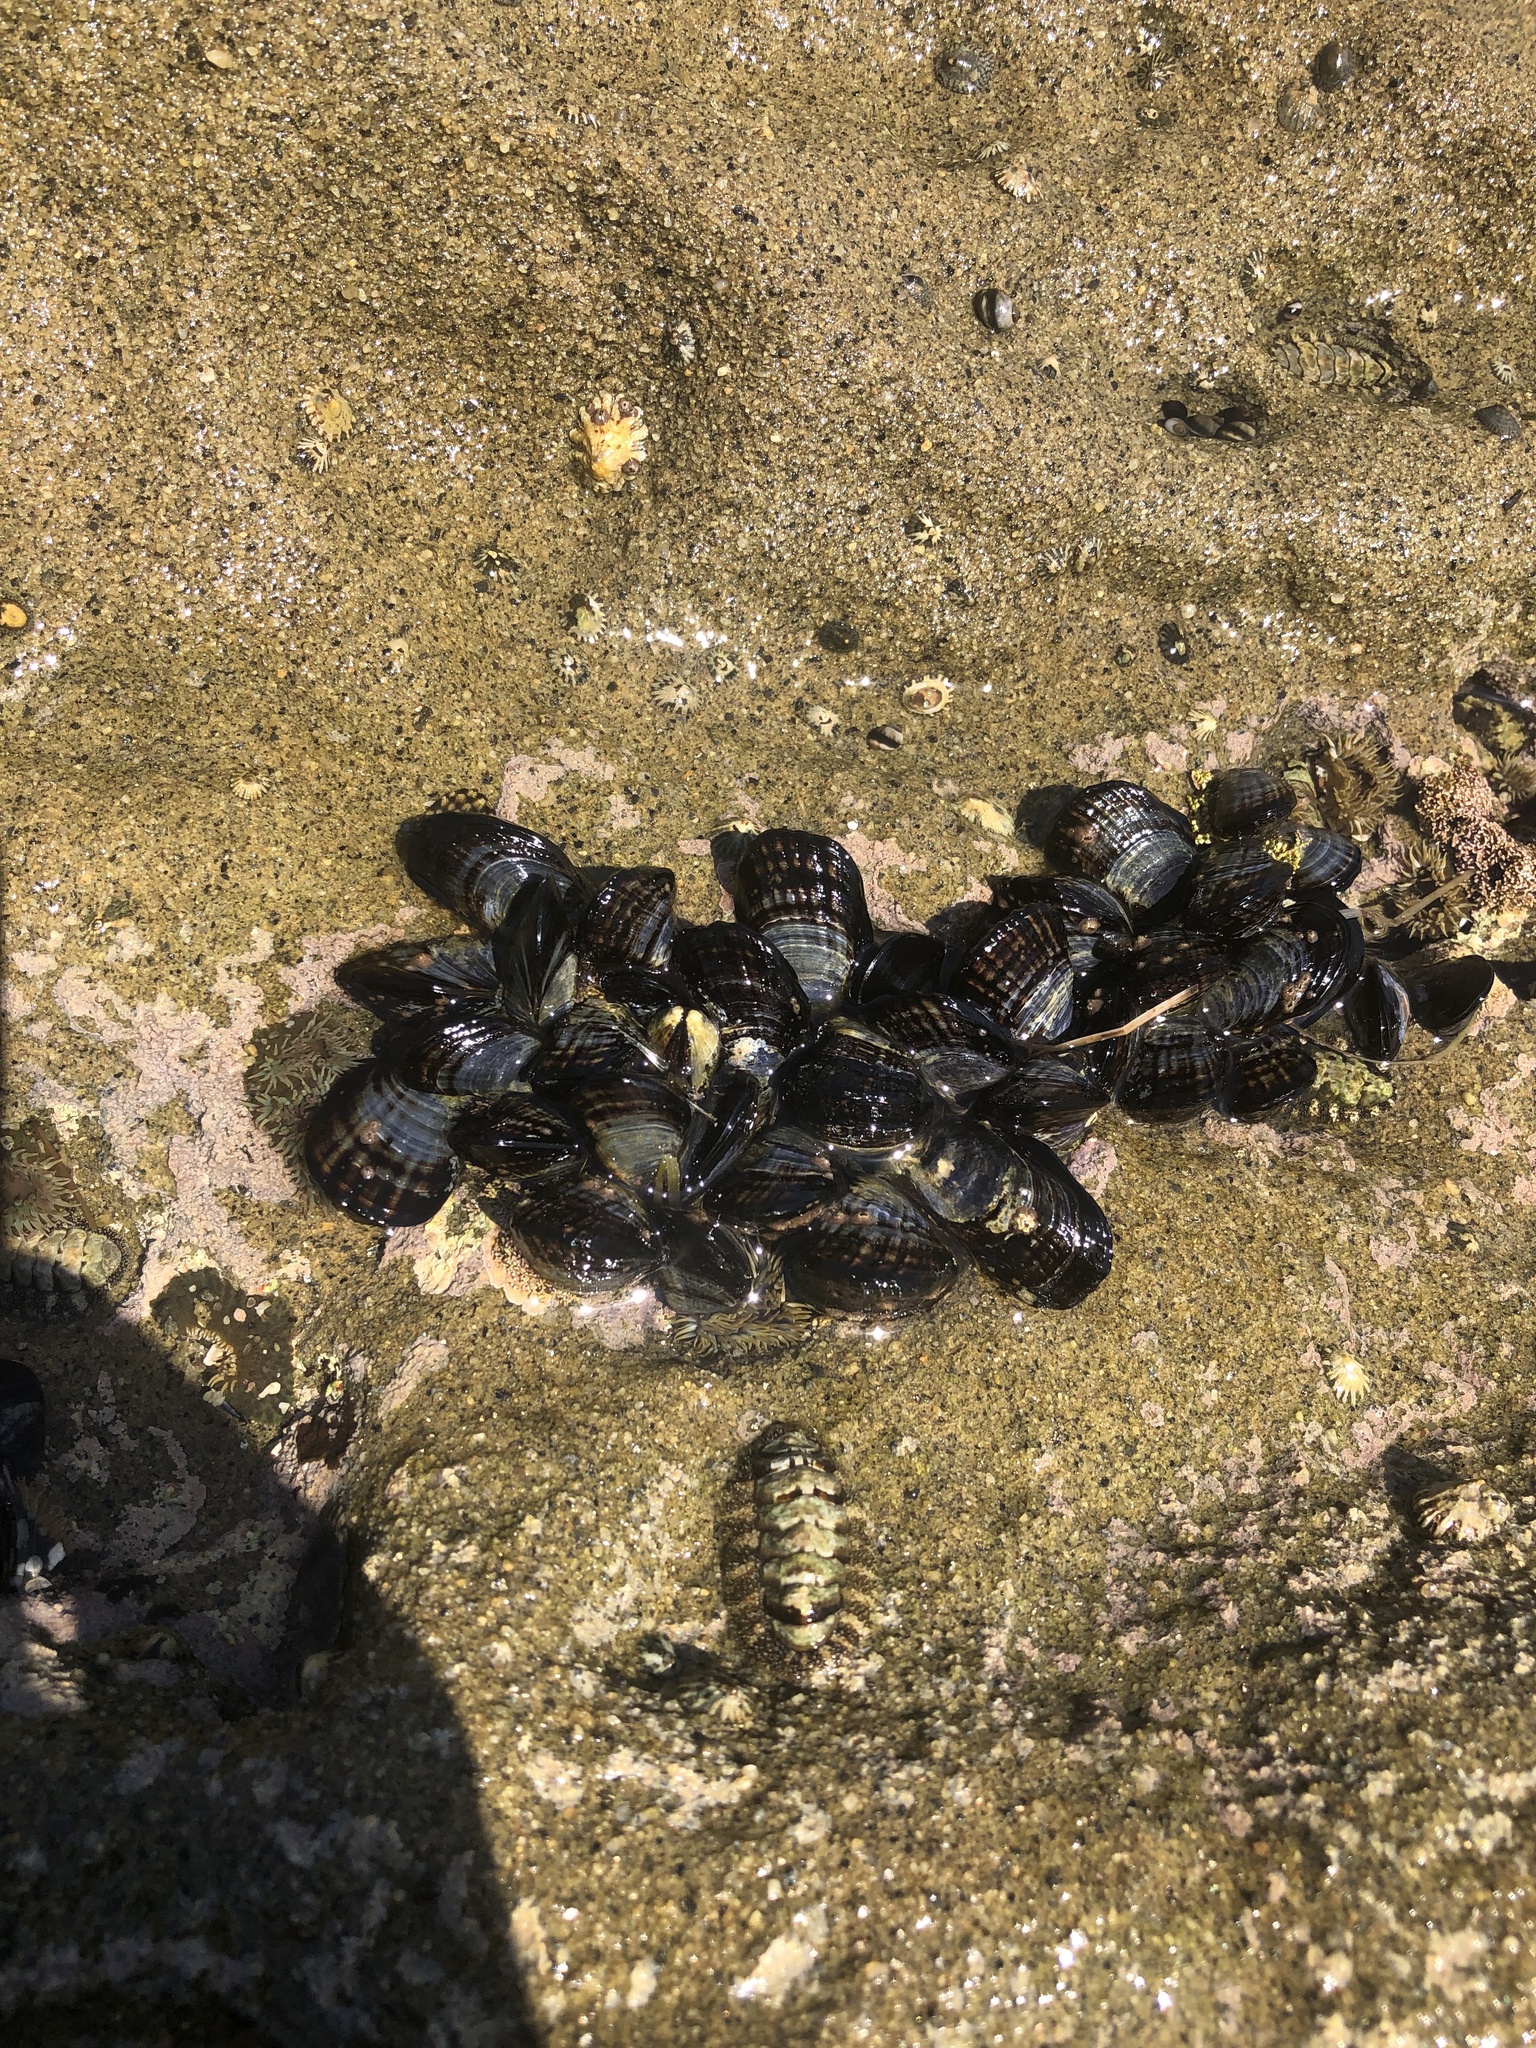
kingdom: Animalia
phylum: Mollusca
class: Bivalvia
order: Mytilida
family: Mytilidae
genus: Mytilus
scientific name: Mytilus californianus
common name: California mussel
